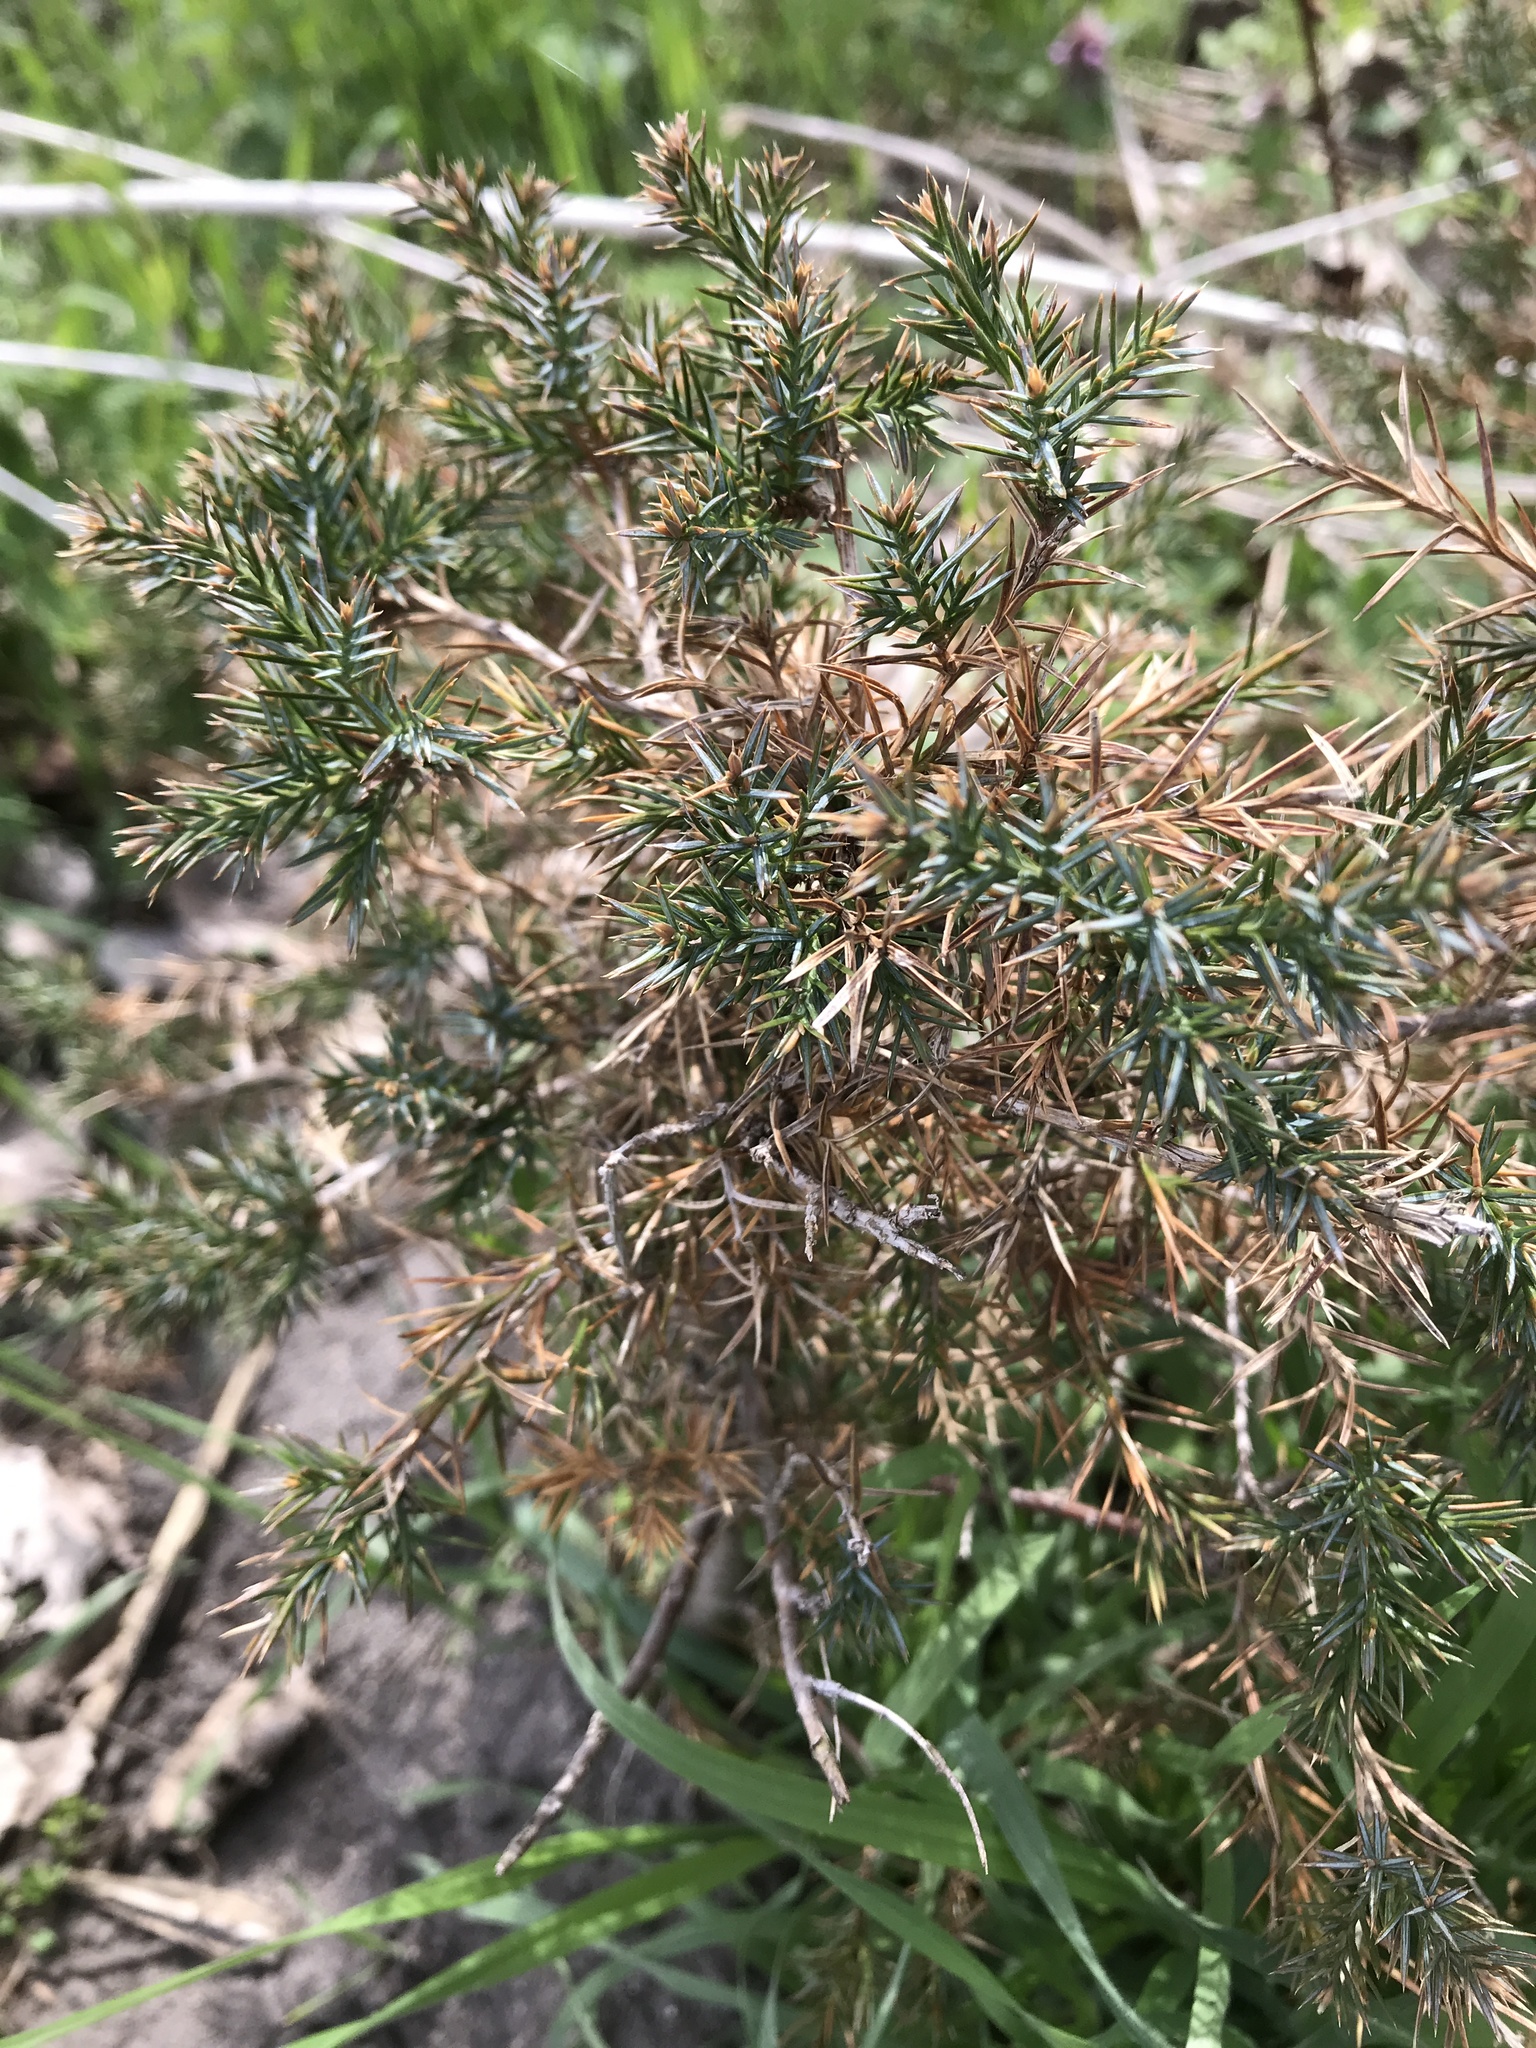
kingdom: Plantae
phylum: Tracheophyta
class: Pinopsida
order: Pinales
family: Cupressaceae
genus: Juniperus
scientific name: Juniperus virginiana
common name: Red juniper
